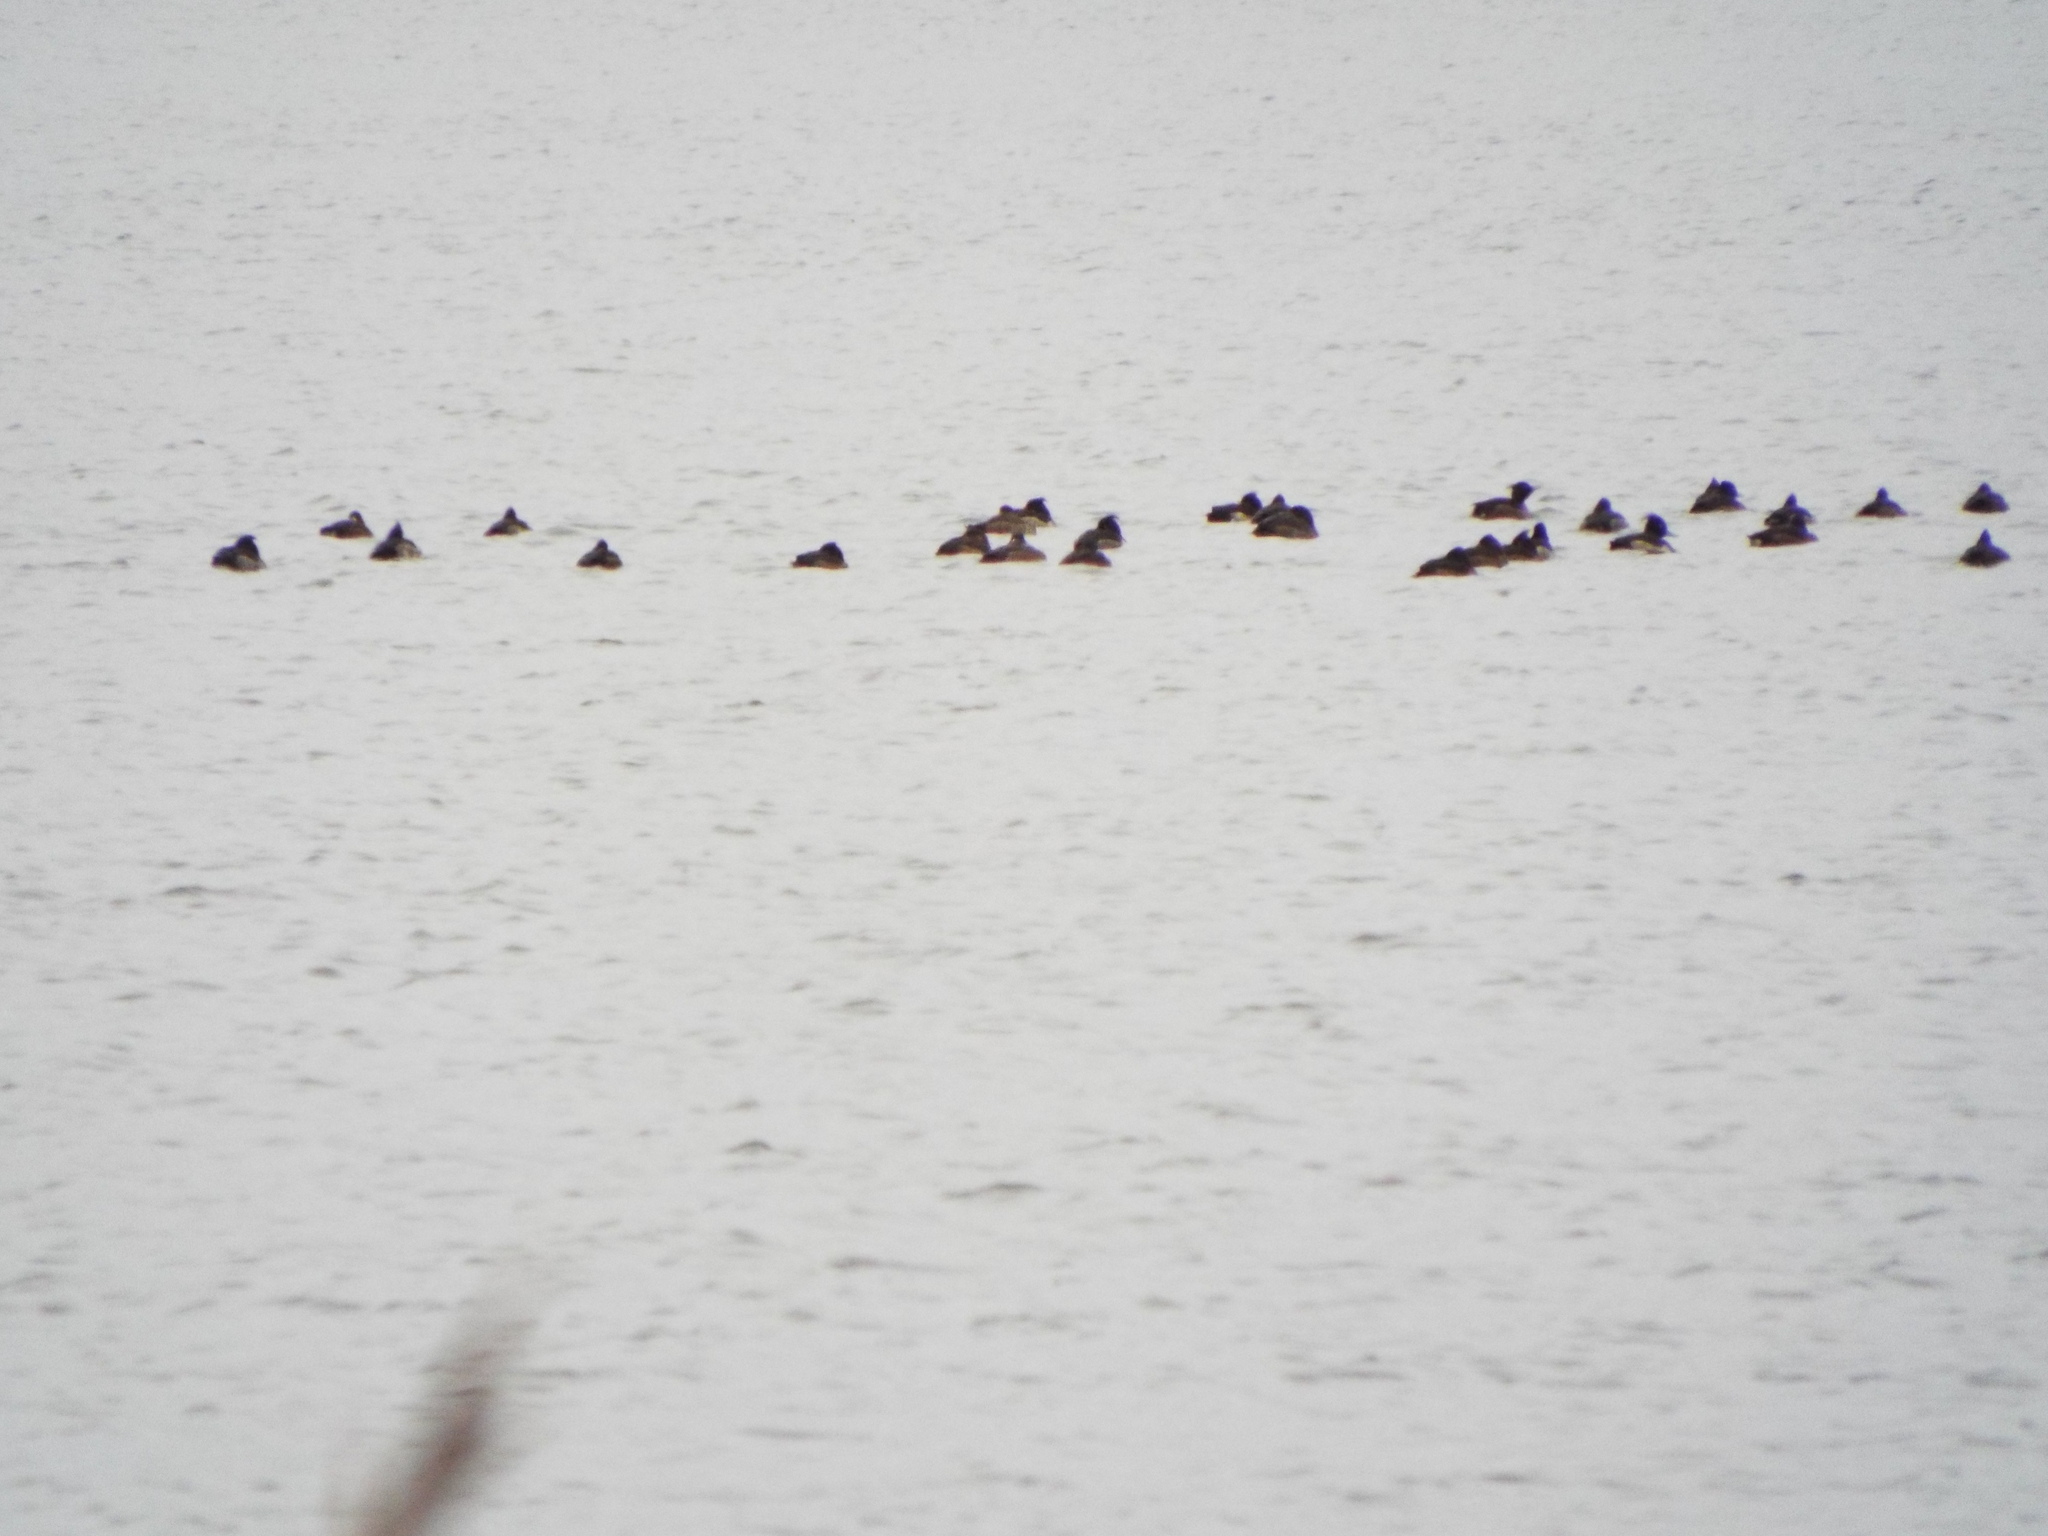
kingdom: Animalia
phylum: Chordata
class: Aves
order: Anseriformes
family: Anatidae
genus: Aythya
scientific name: Aythya fuligula
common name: Tufted duck
